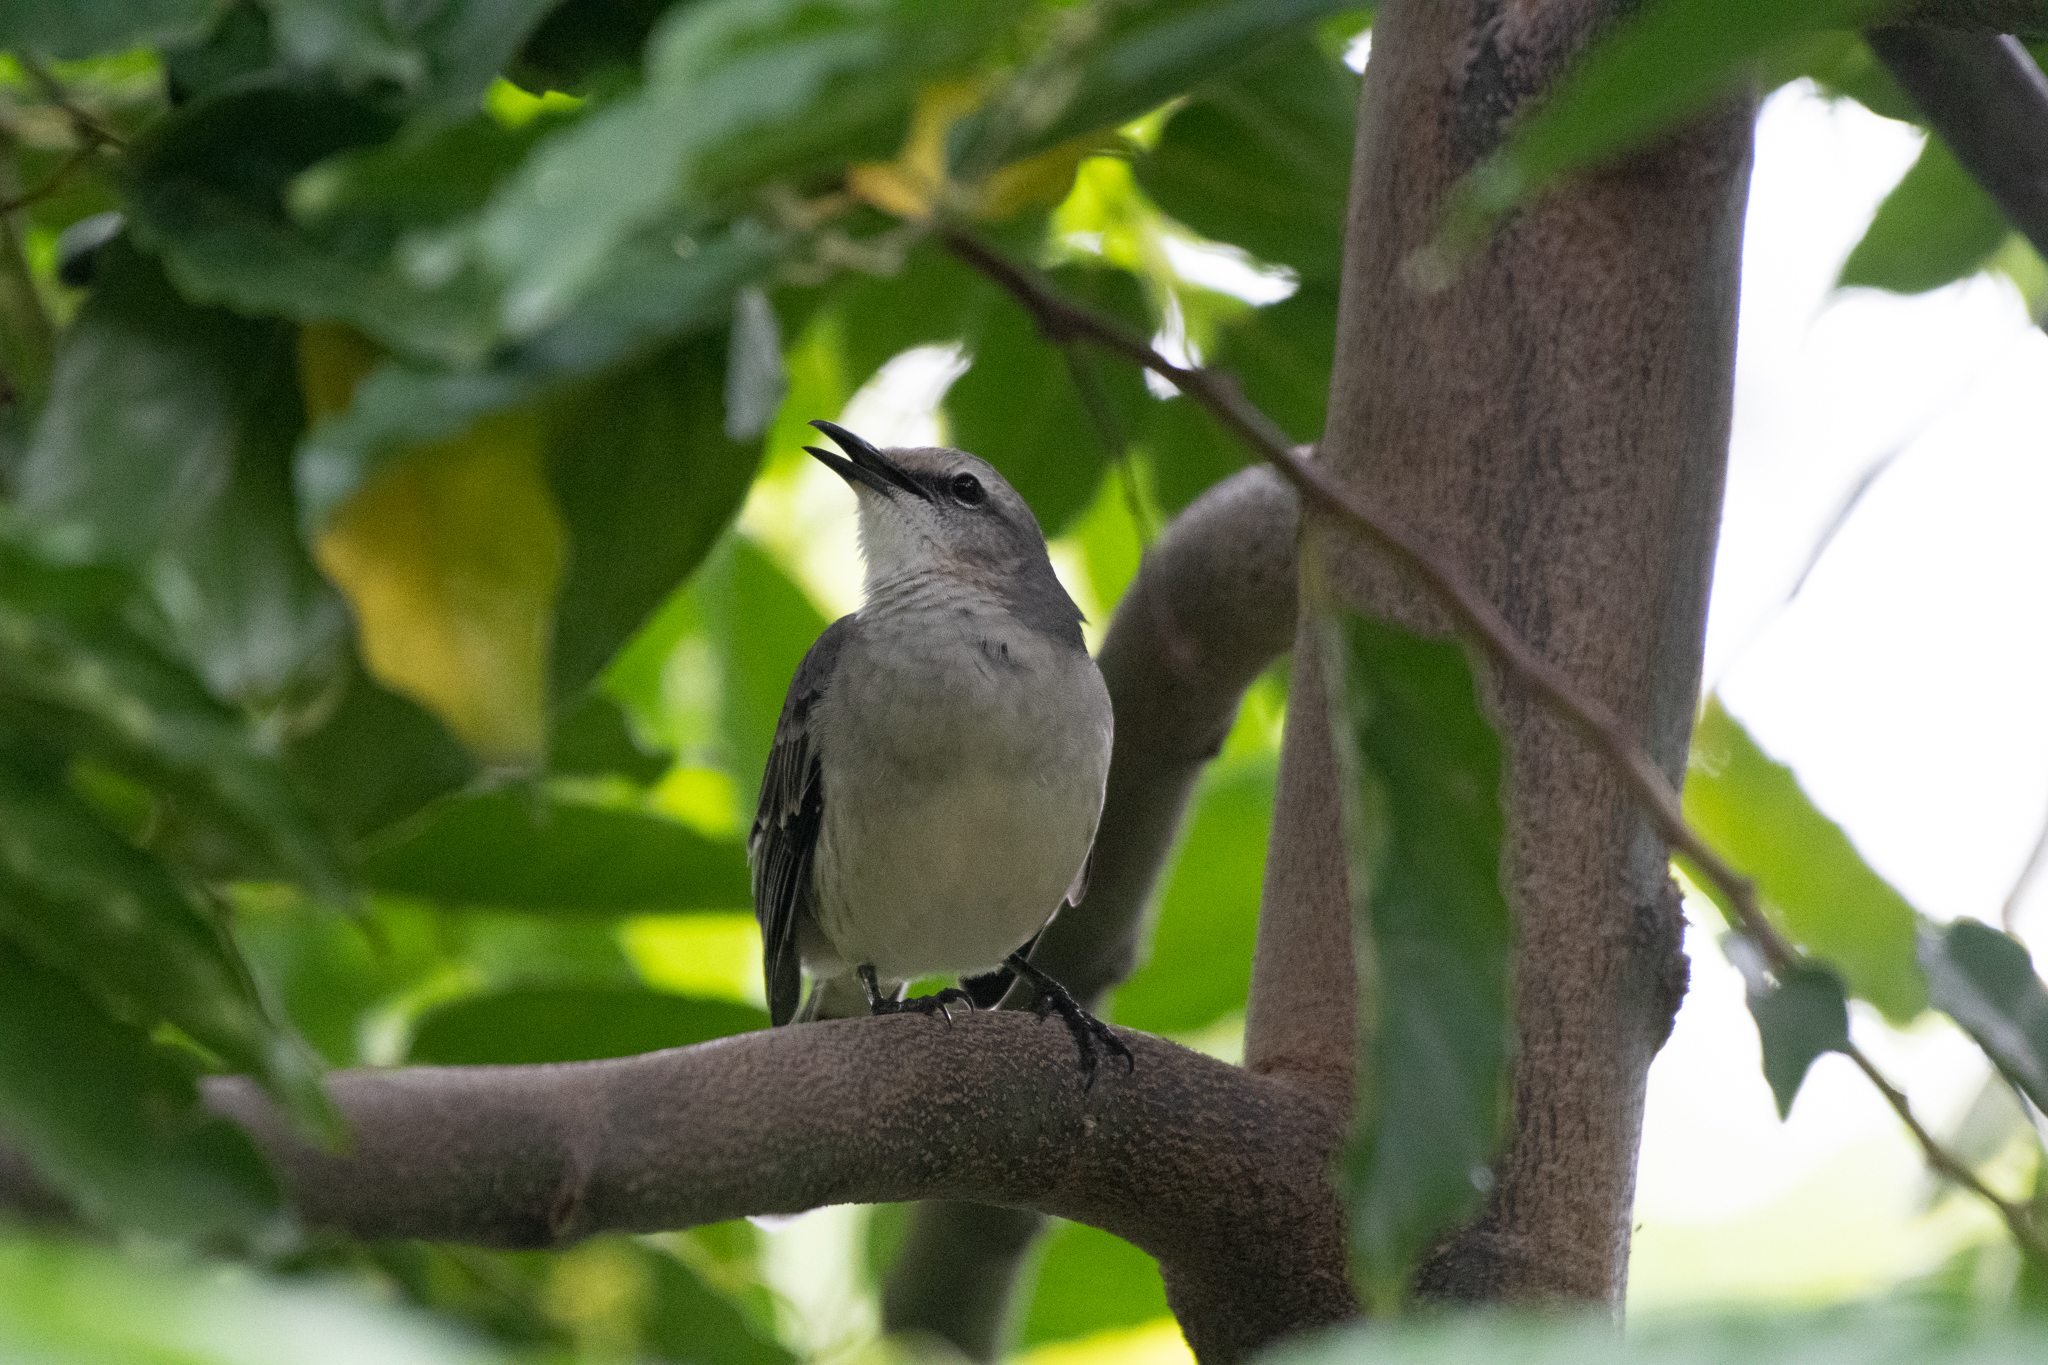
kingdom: Animalia
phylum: Chordata
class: Aves
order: Passeriformes
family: Mimidae
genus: Mimus
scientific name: Mimus gilvus
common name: Tropical mockingbird
